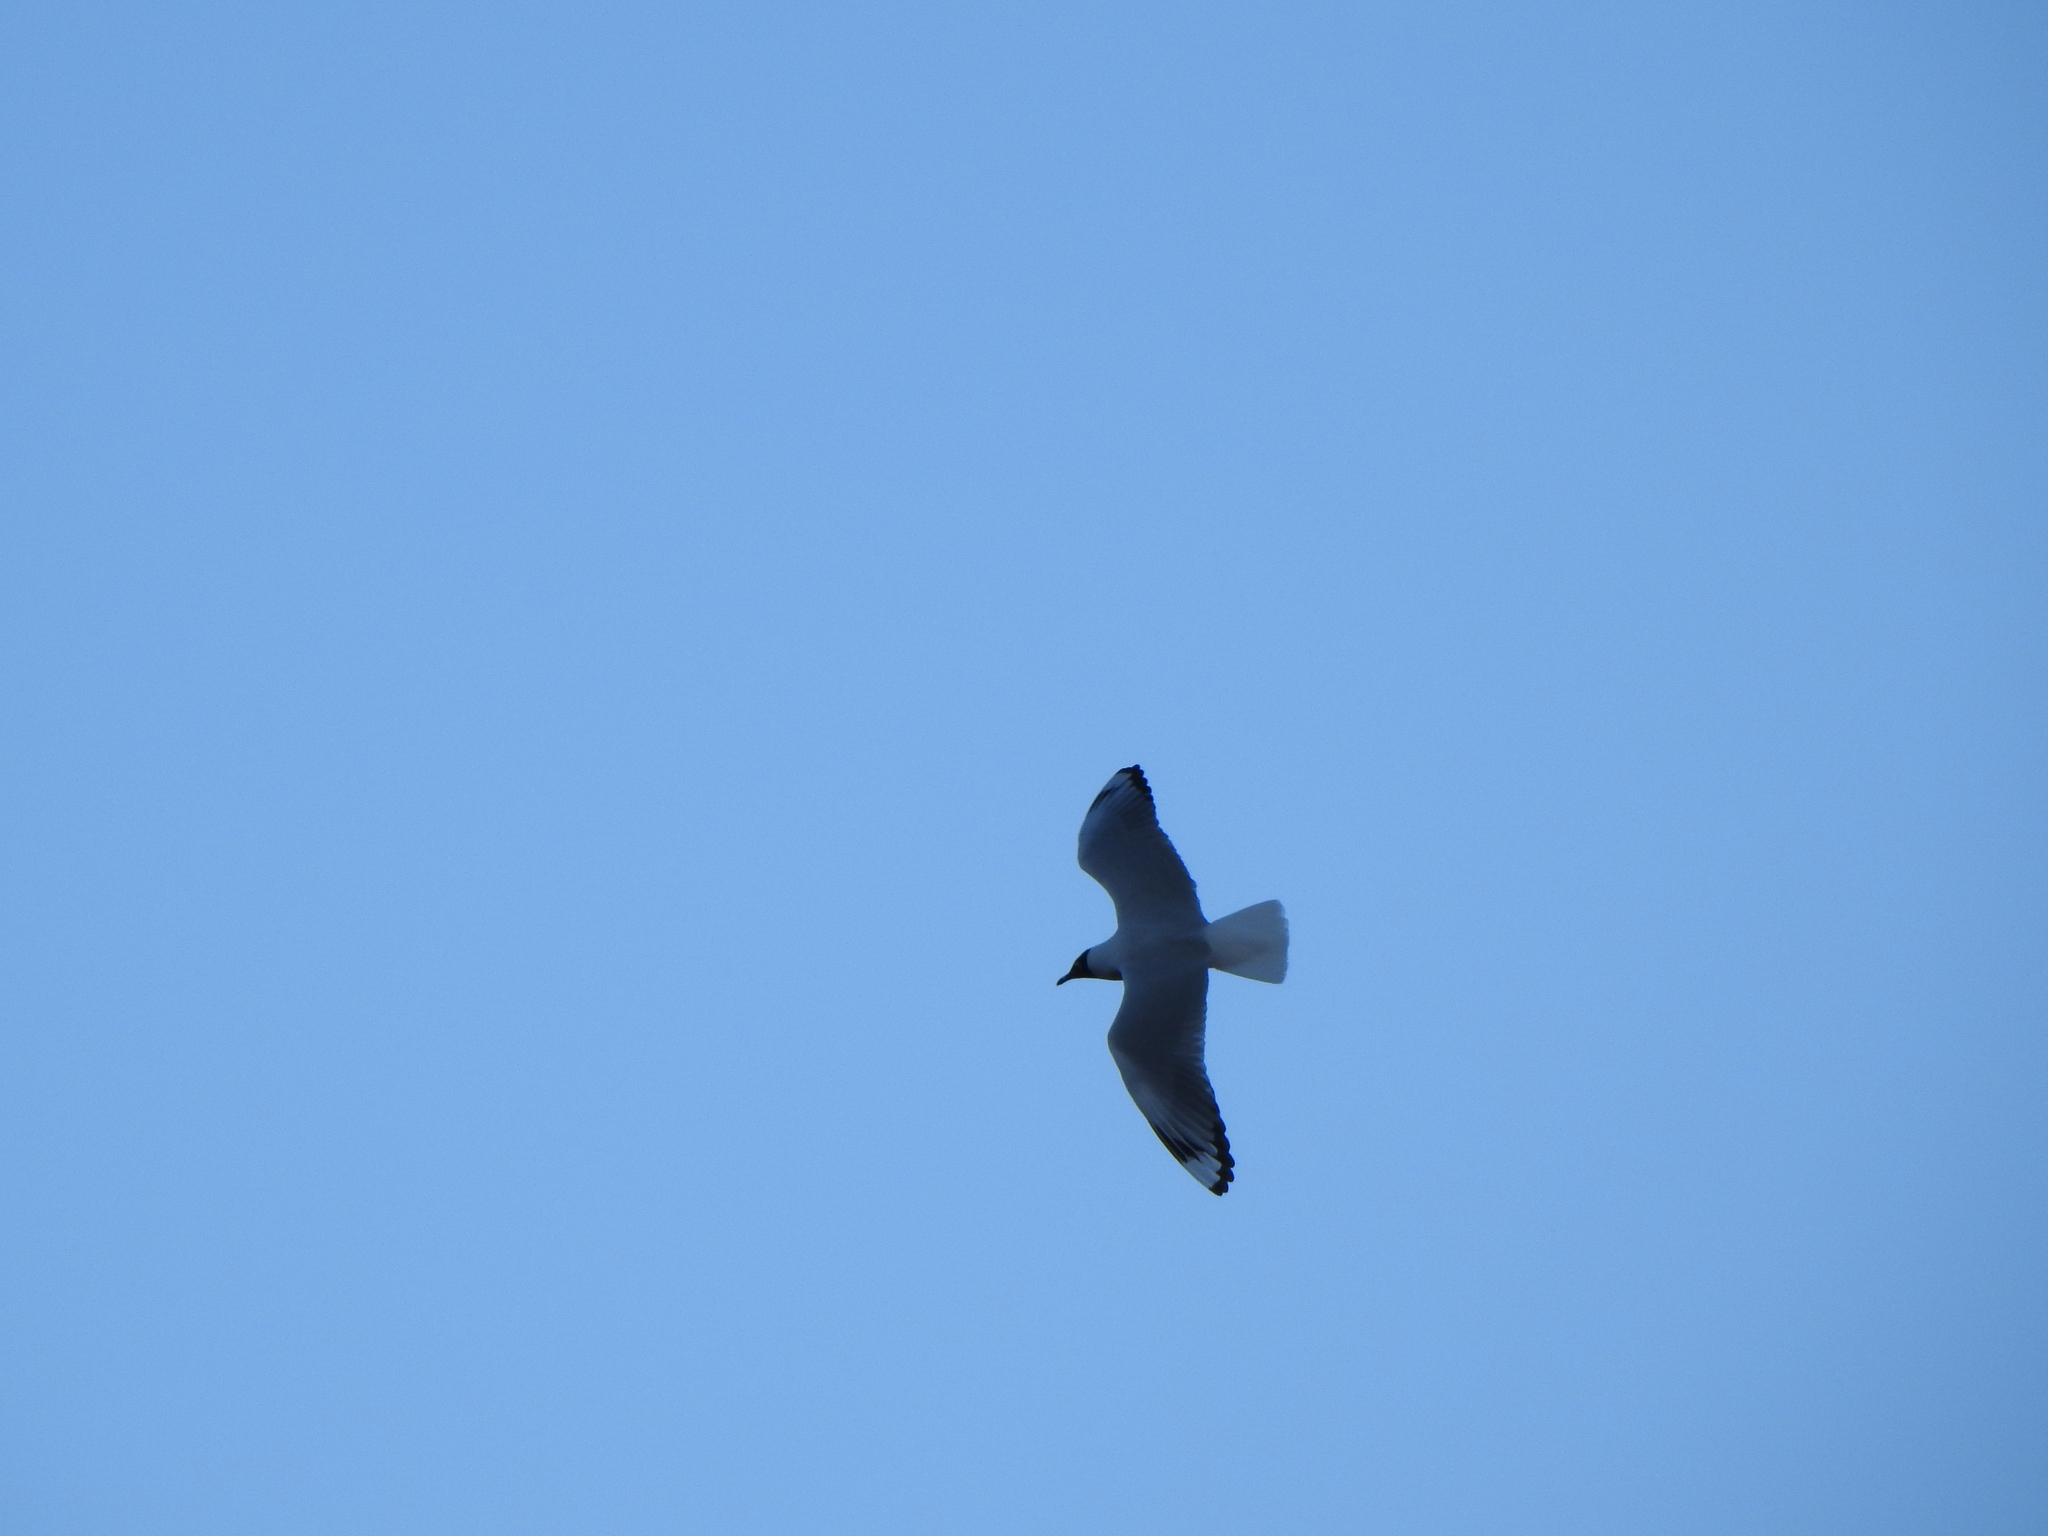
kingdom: Animalia
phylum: Chordata
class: Aves
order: Charadriiformes
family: Laridae
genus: Chroicocephalus
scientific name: Chroicocephalus serranus
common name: Andean gull
